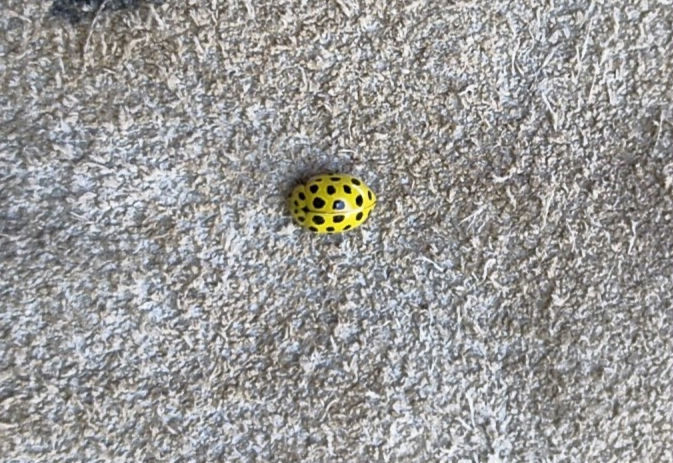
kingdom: Animalia
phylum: Arthropoda
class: Insecta
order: Coleoptera
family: Coccinellidae
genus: Psyllobora
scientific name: Psyllobora vigintiduopunctata
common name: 22-spot ladybird
